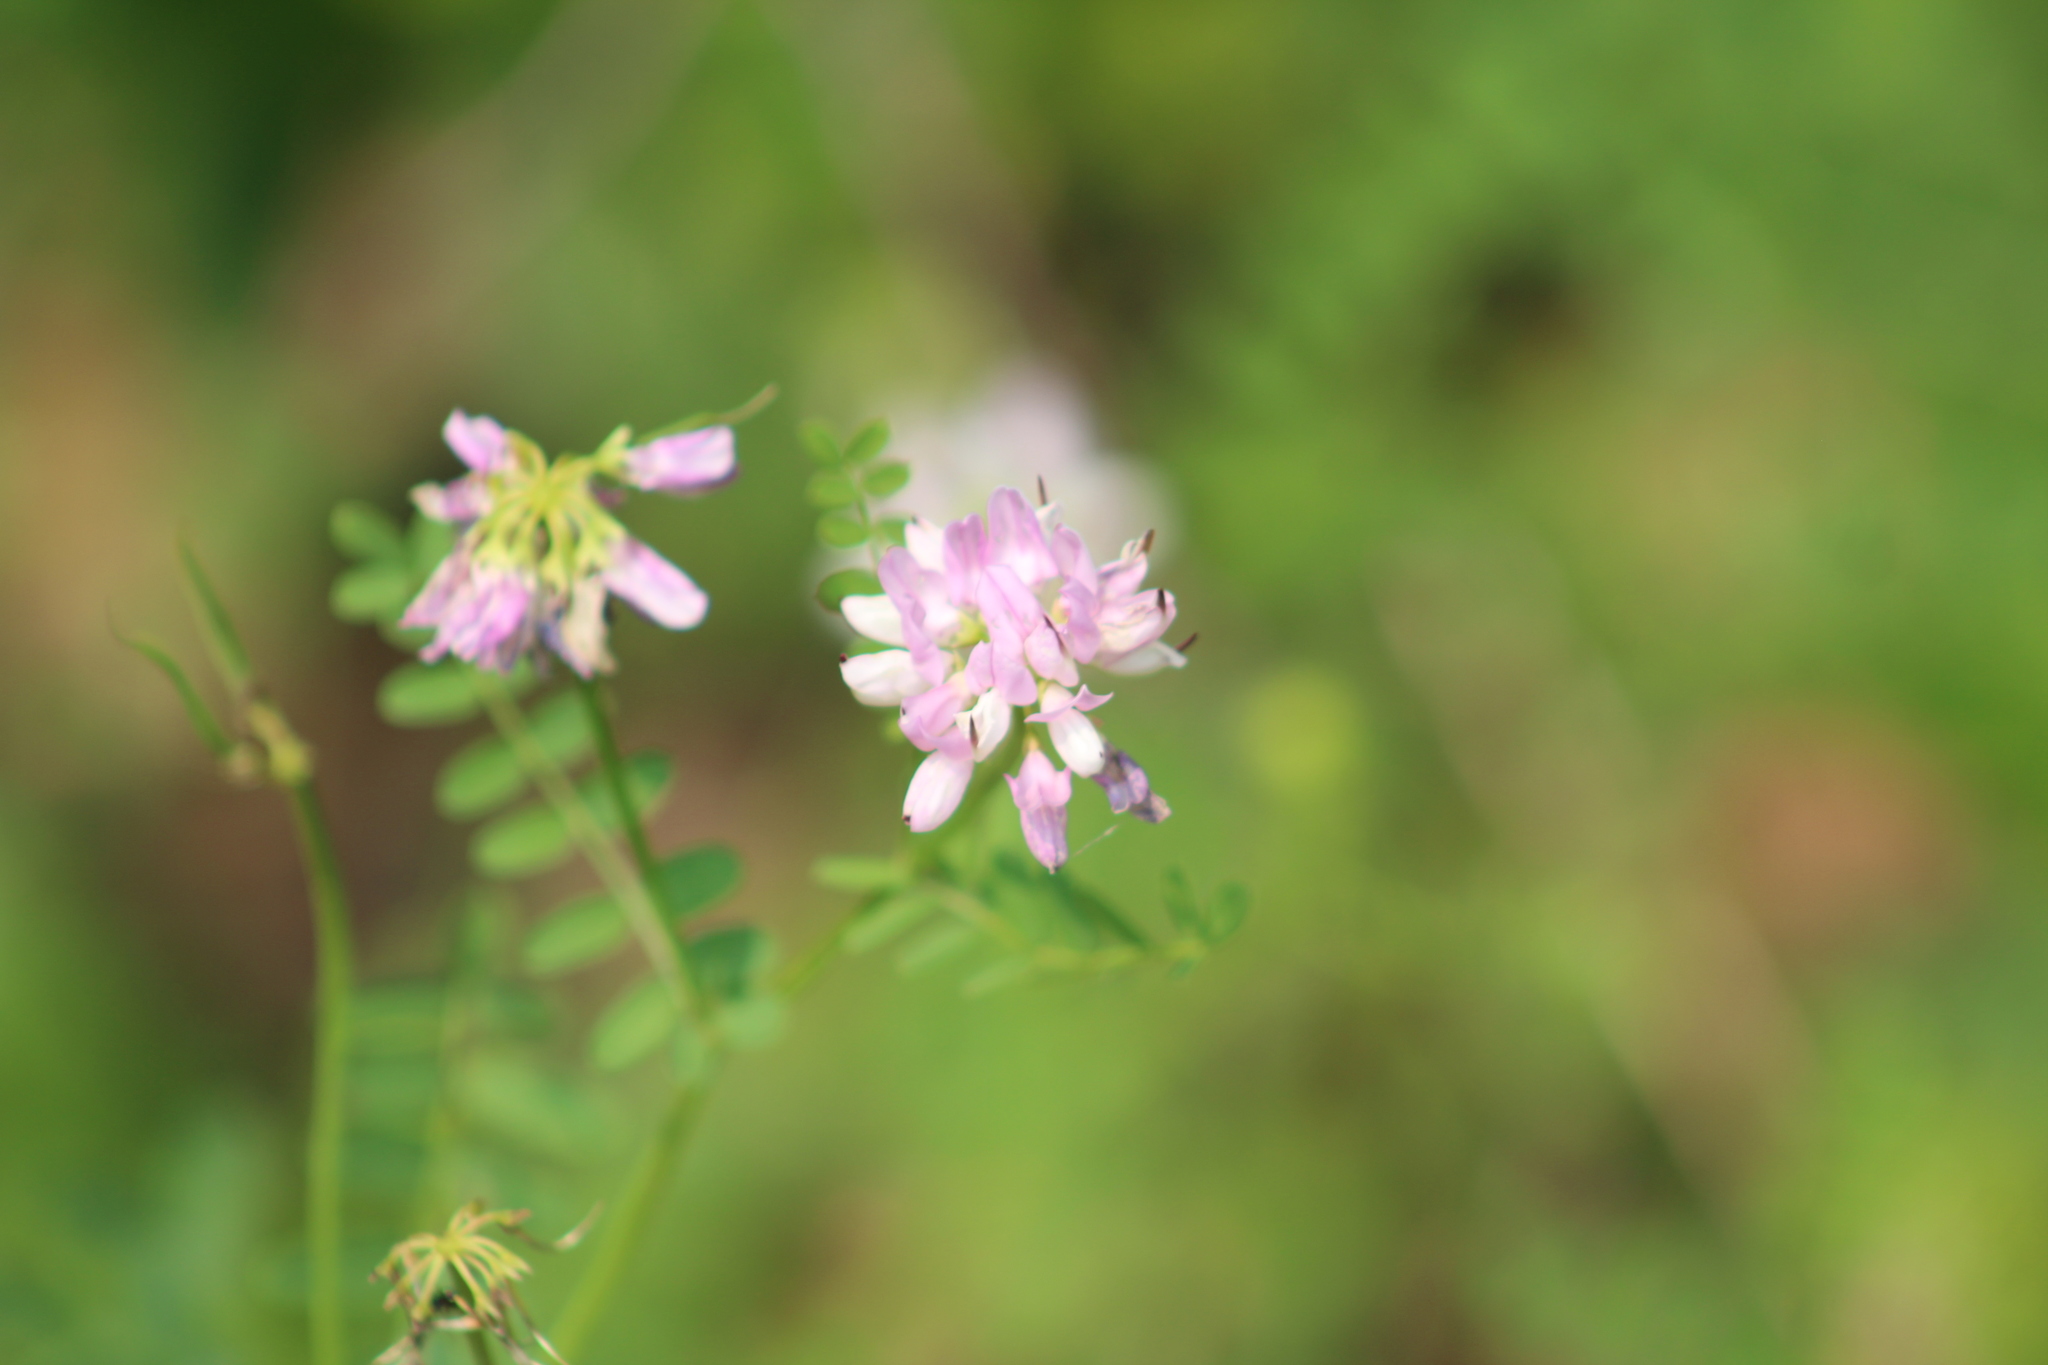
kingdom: Plantae
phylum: Tracheophyta
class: Magnoliopsida
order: Fabales
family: Fabaceae
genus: Coronilla
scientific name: Coronilla varia
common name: Crownvetch
